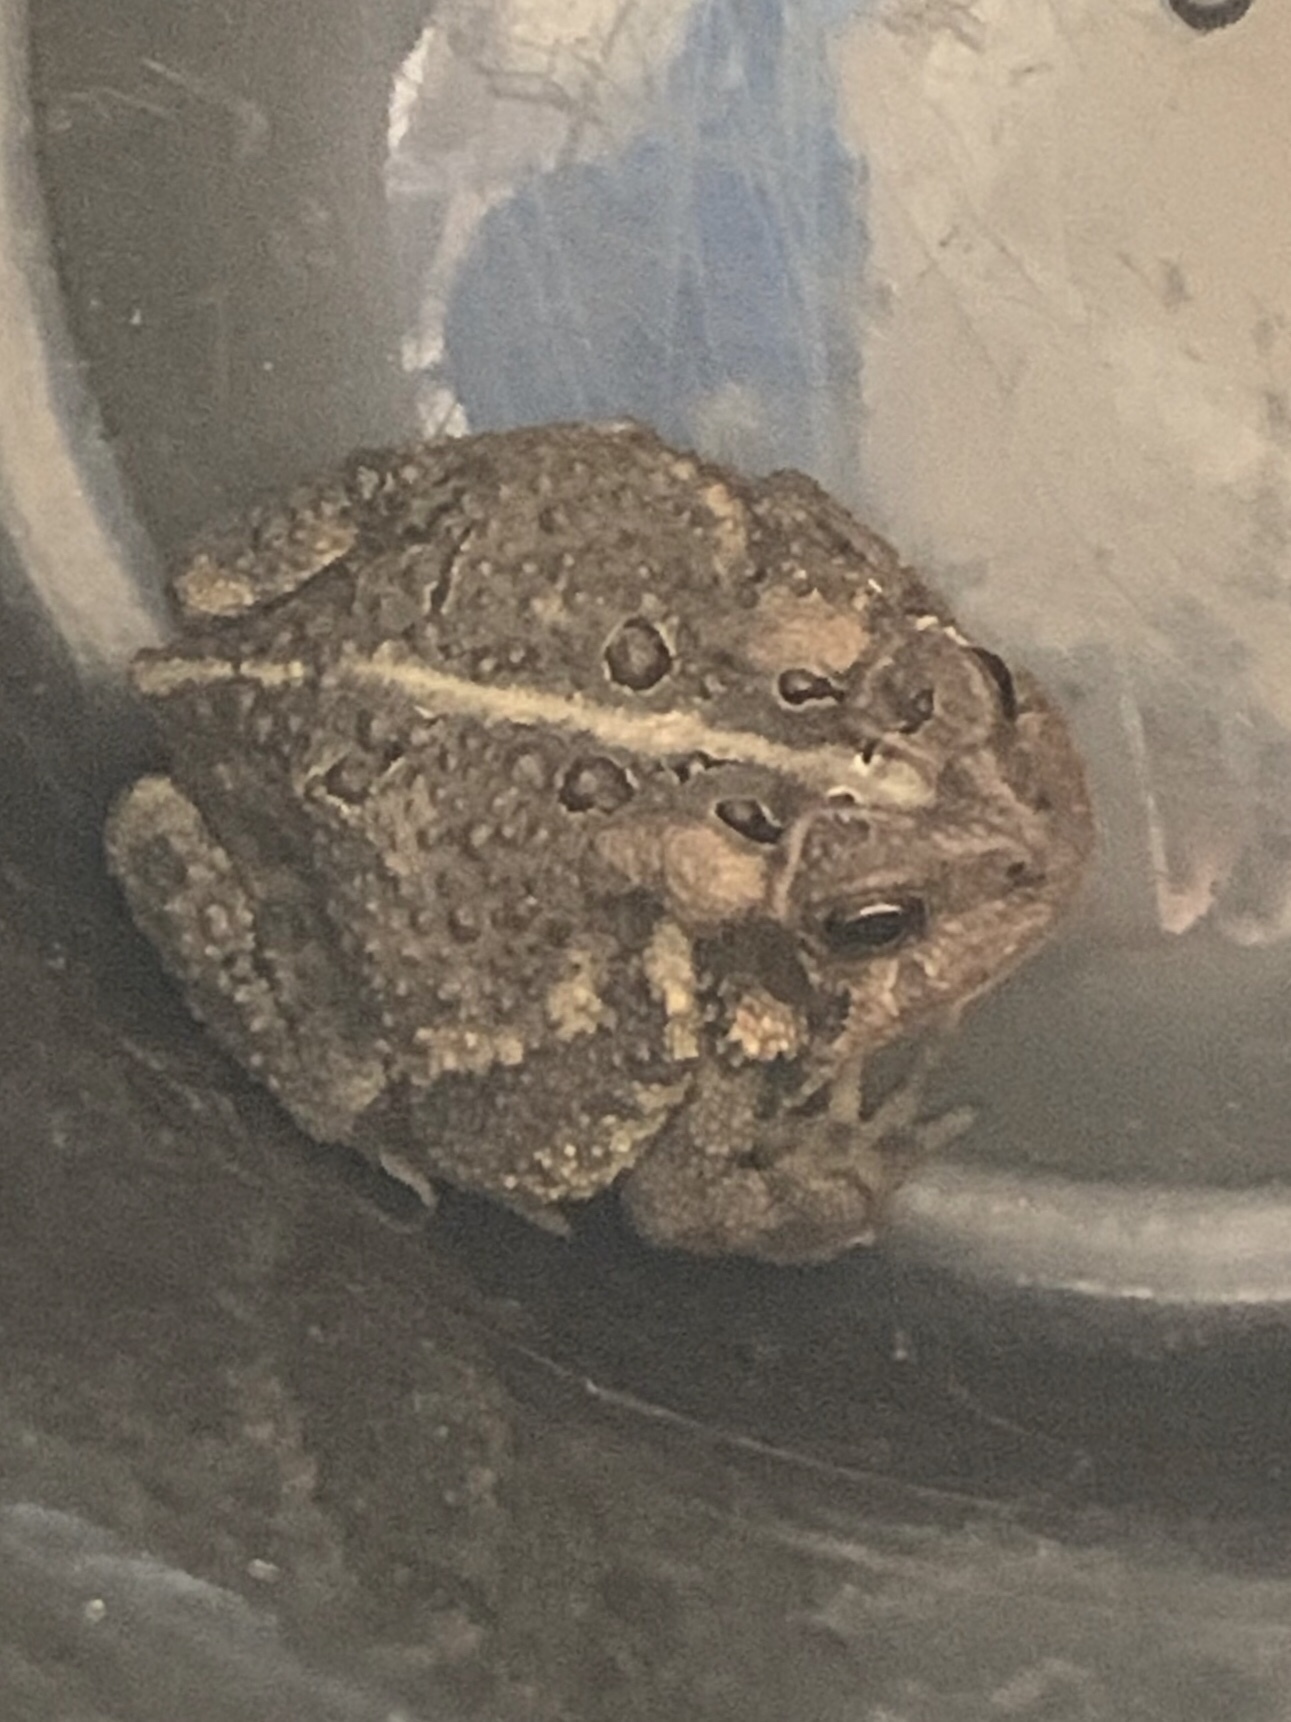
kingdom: Animalia
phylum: Chordata
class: Amphibia
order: Anura
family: Bufonidae
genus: Anaxyrus
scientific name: Anaxyrus americanus
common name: American toad
